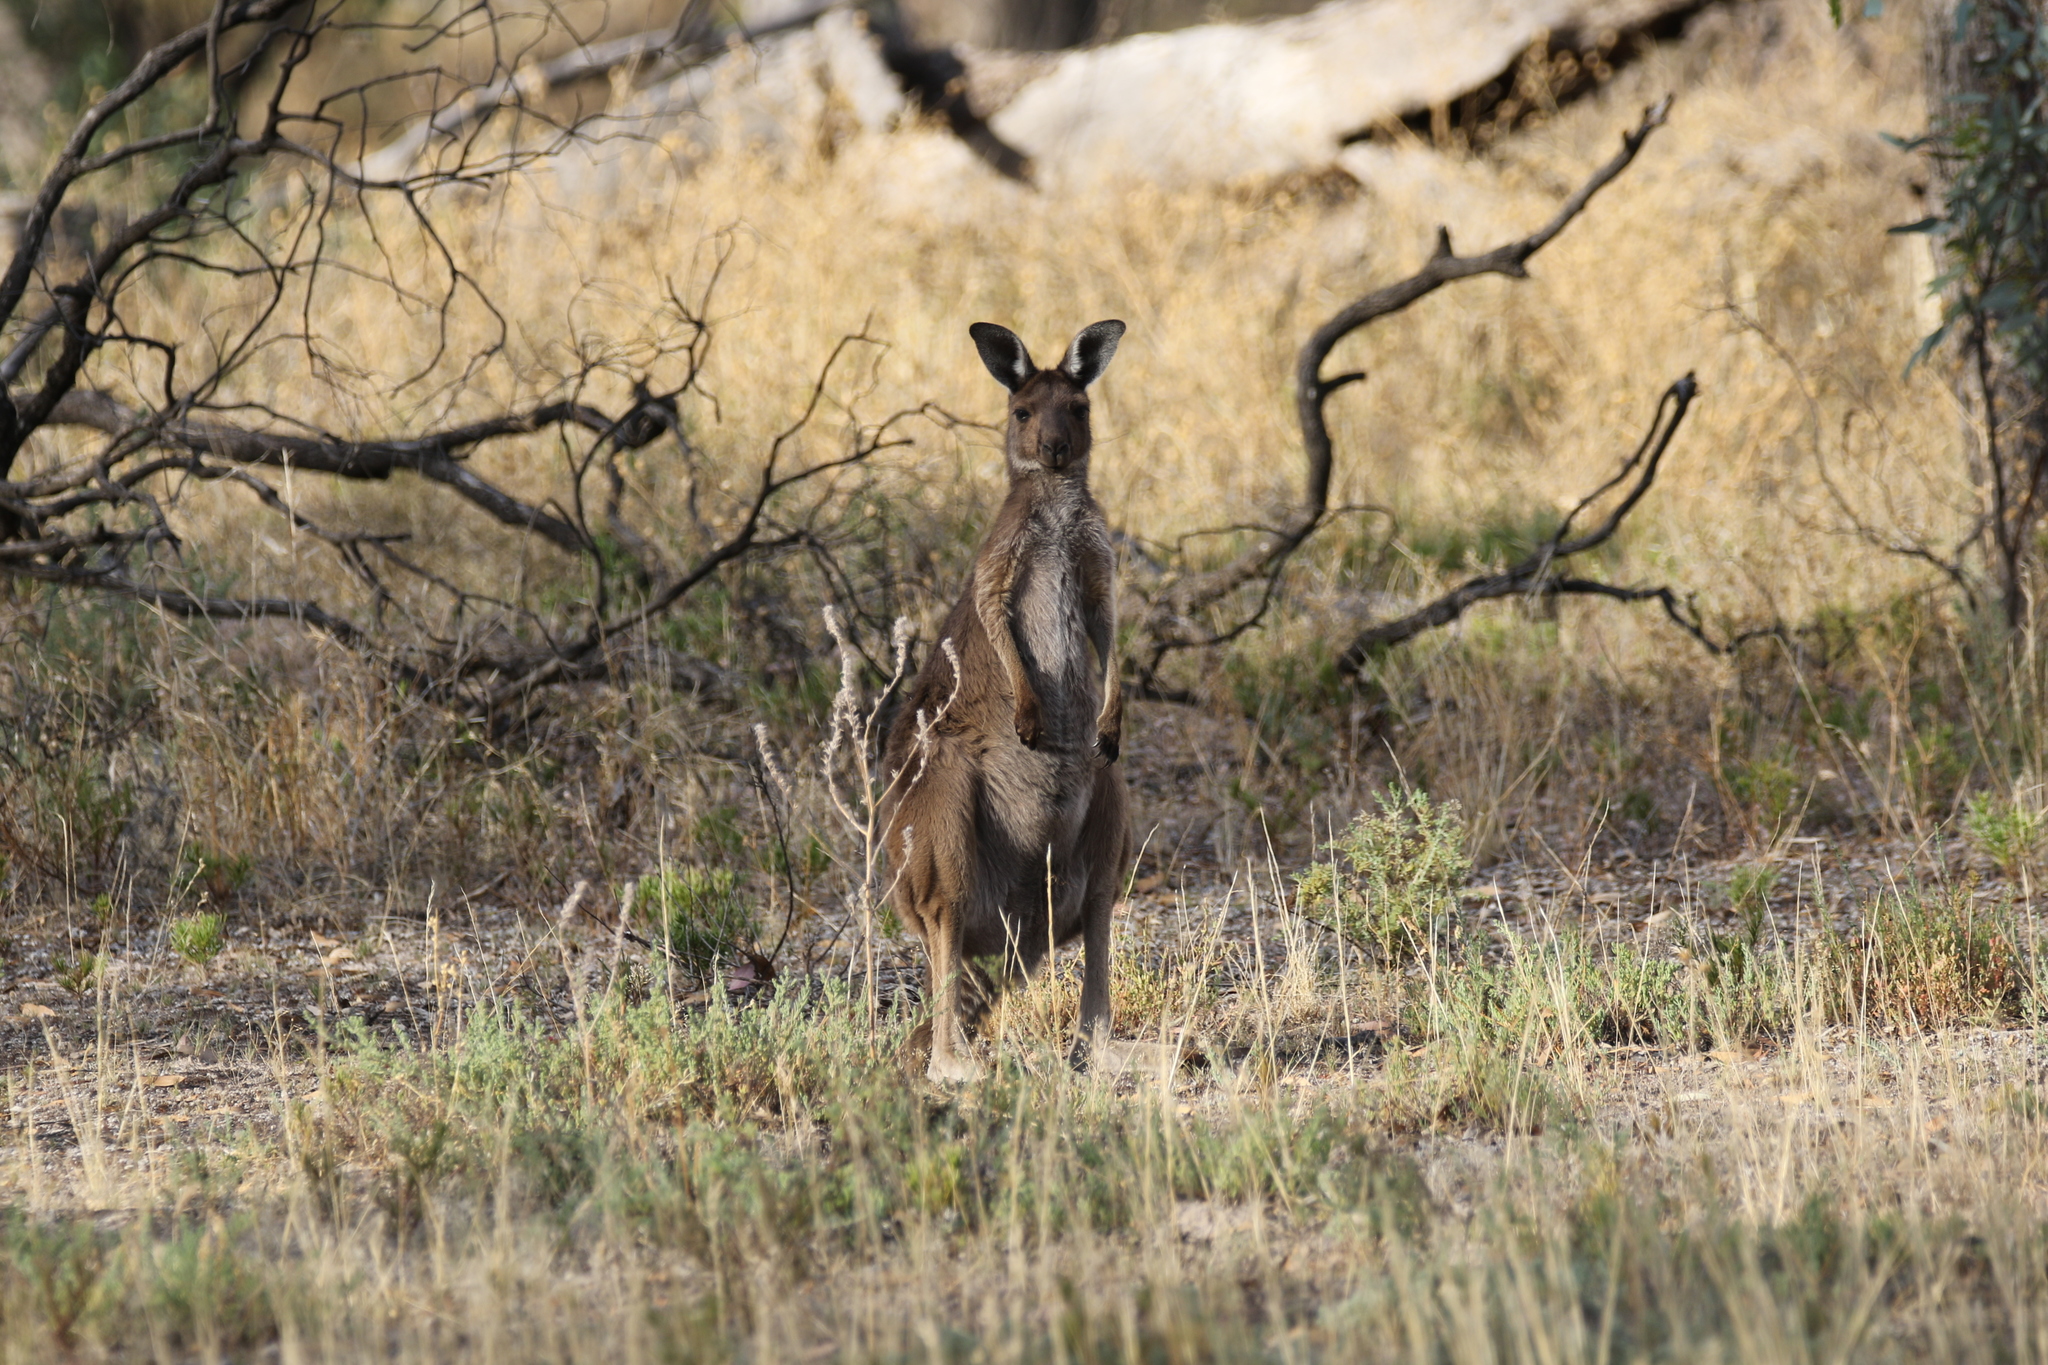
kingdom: Animalia
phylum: Chordata
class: Mammalia
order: Diprotodontia
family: Macropodidae
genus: Macropus
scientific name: Macropus fuliginosus
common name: Western grey kangaroo
